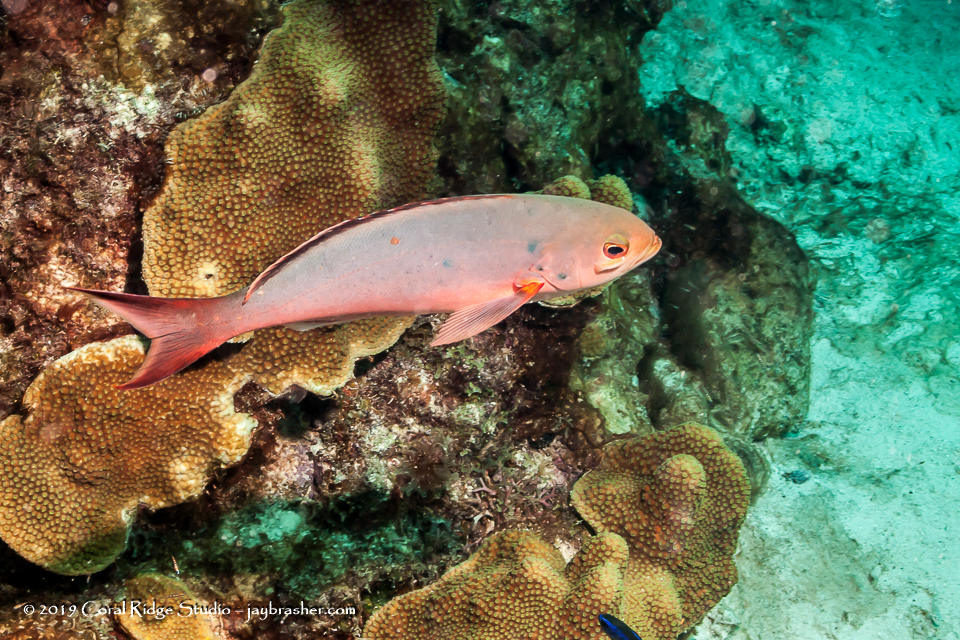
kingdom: Animalia
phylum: Chordata
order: Perciformes
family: Serranidae
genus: Paranthias
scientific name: Paranthias furcifer
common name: Creole-fish
